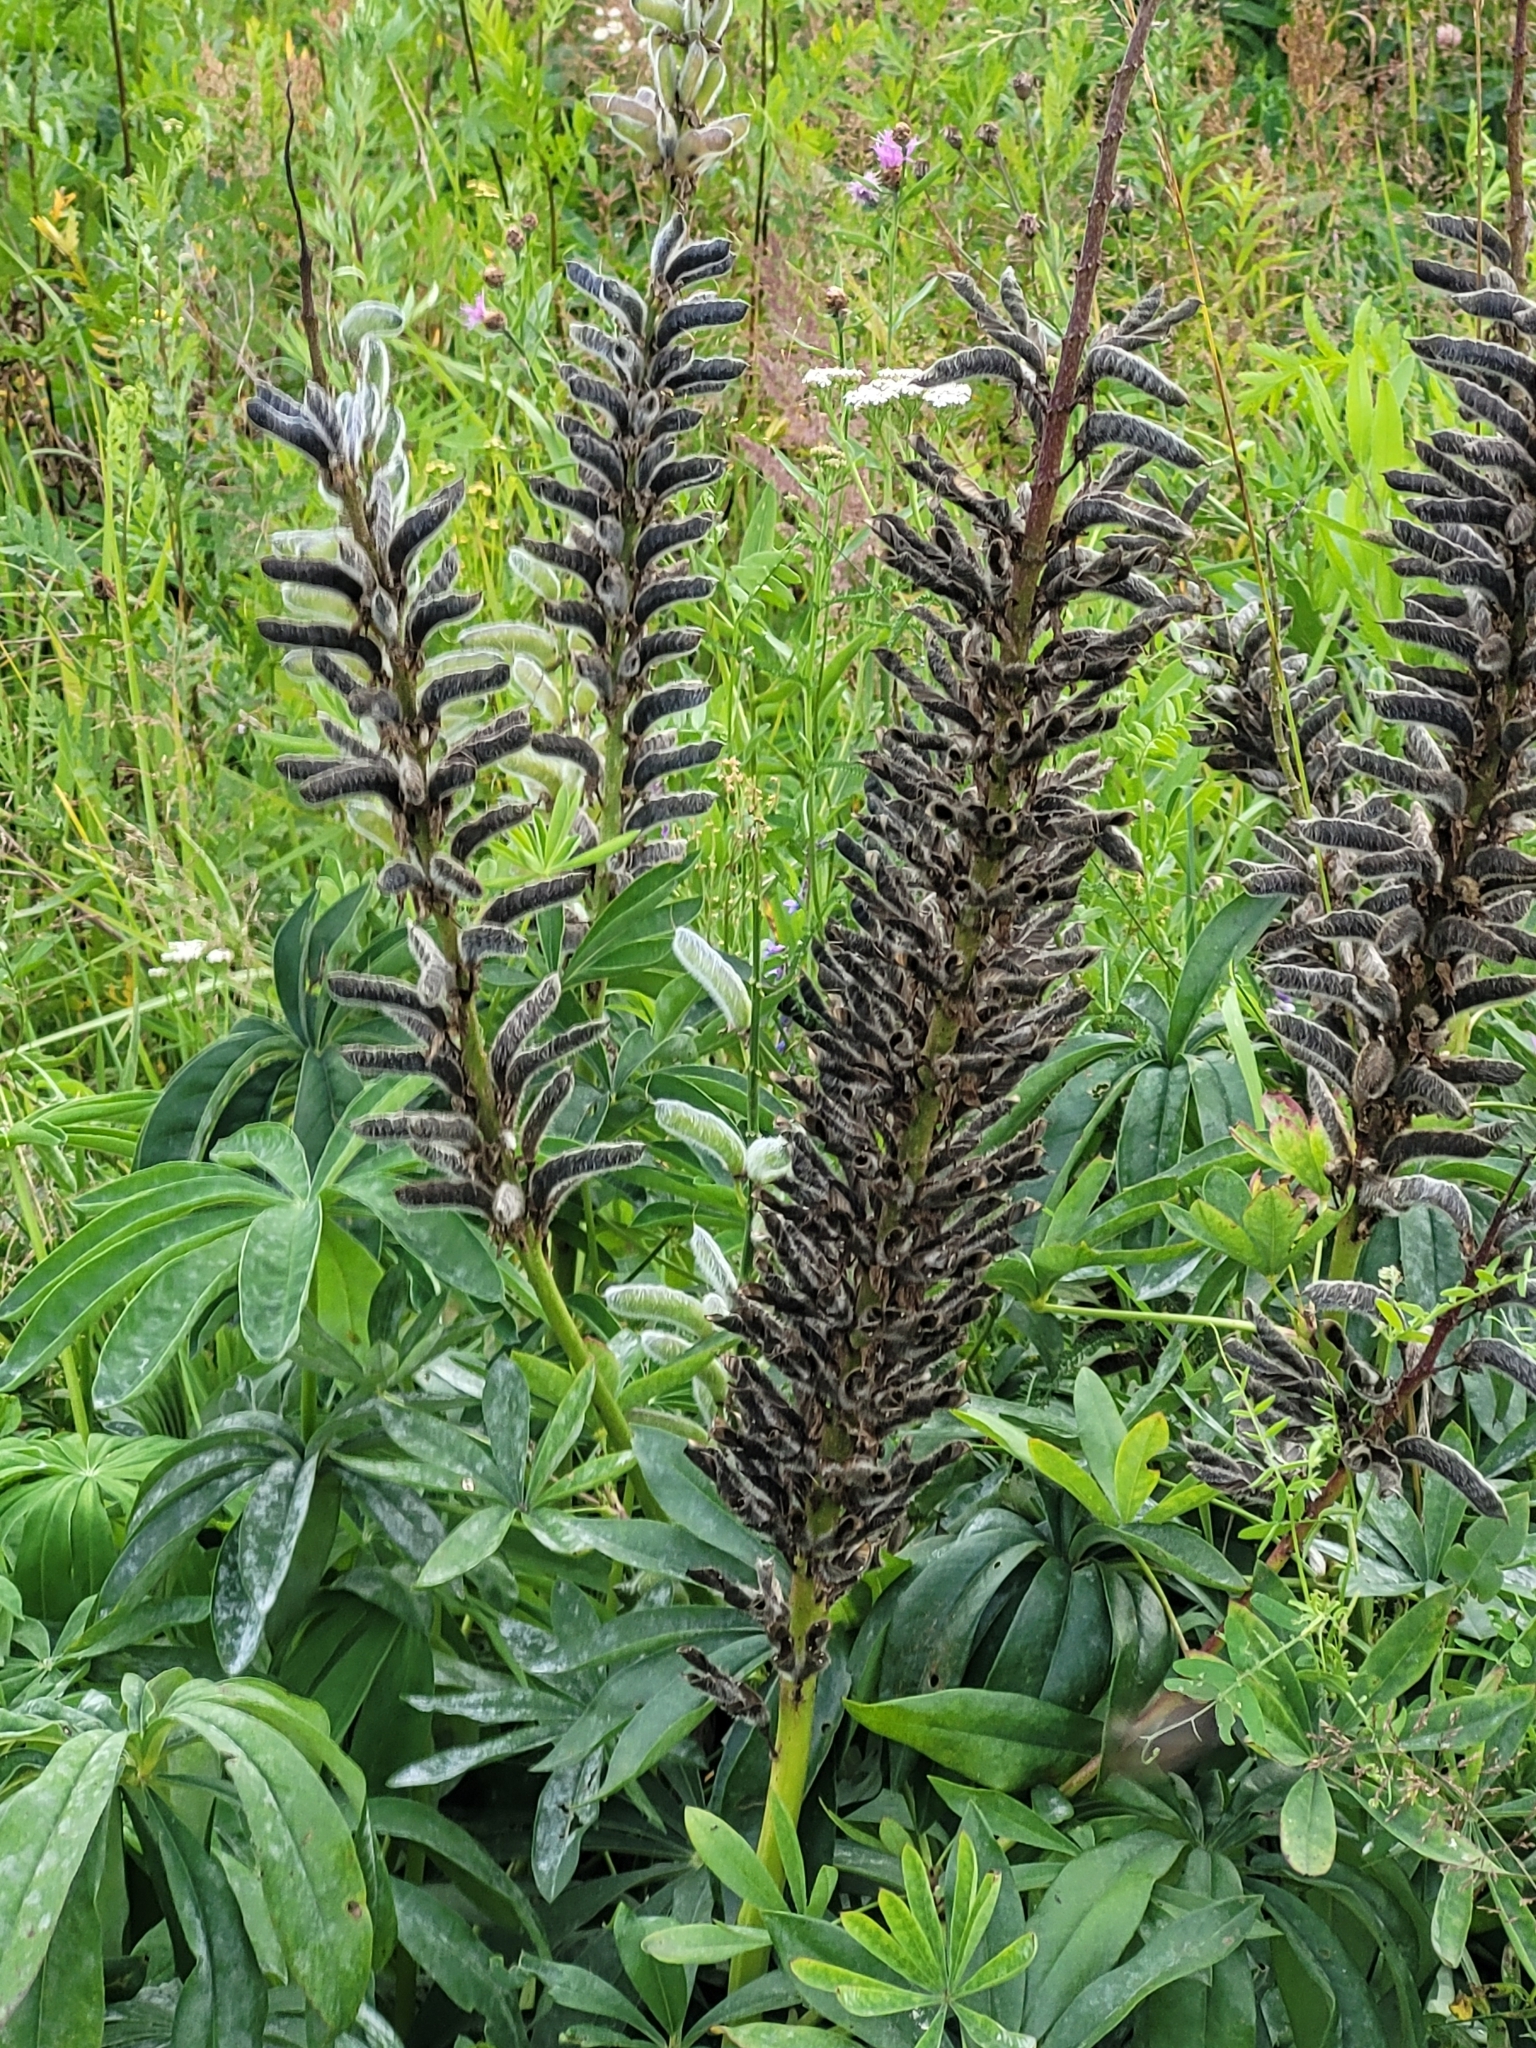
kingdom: Plantae
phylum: Tracheophyta
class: Magnoliopsida
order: Fabales
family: Fabaceae
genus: Lupinus
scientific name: Lupinus polyphyllus
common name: Garden lupin
